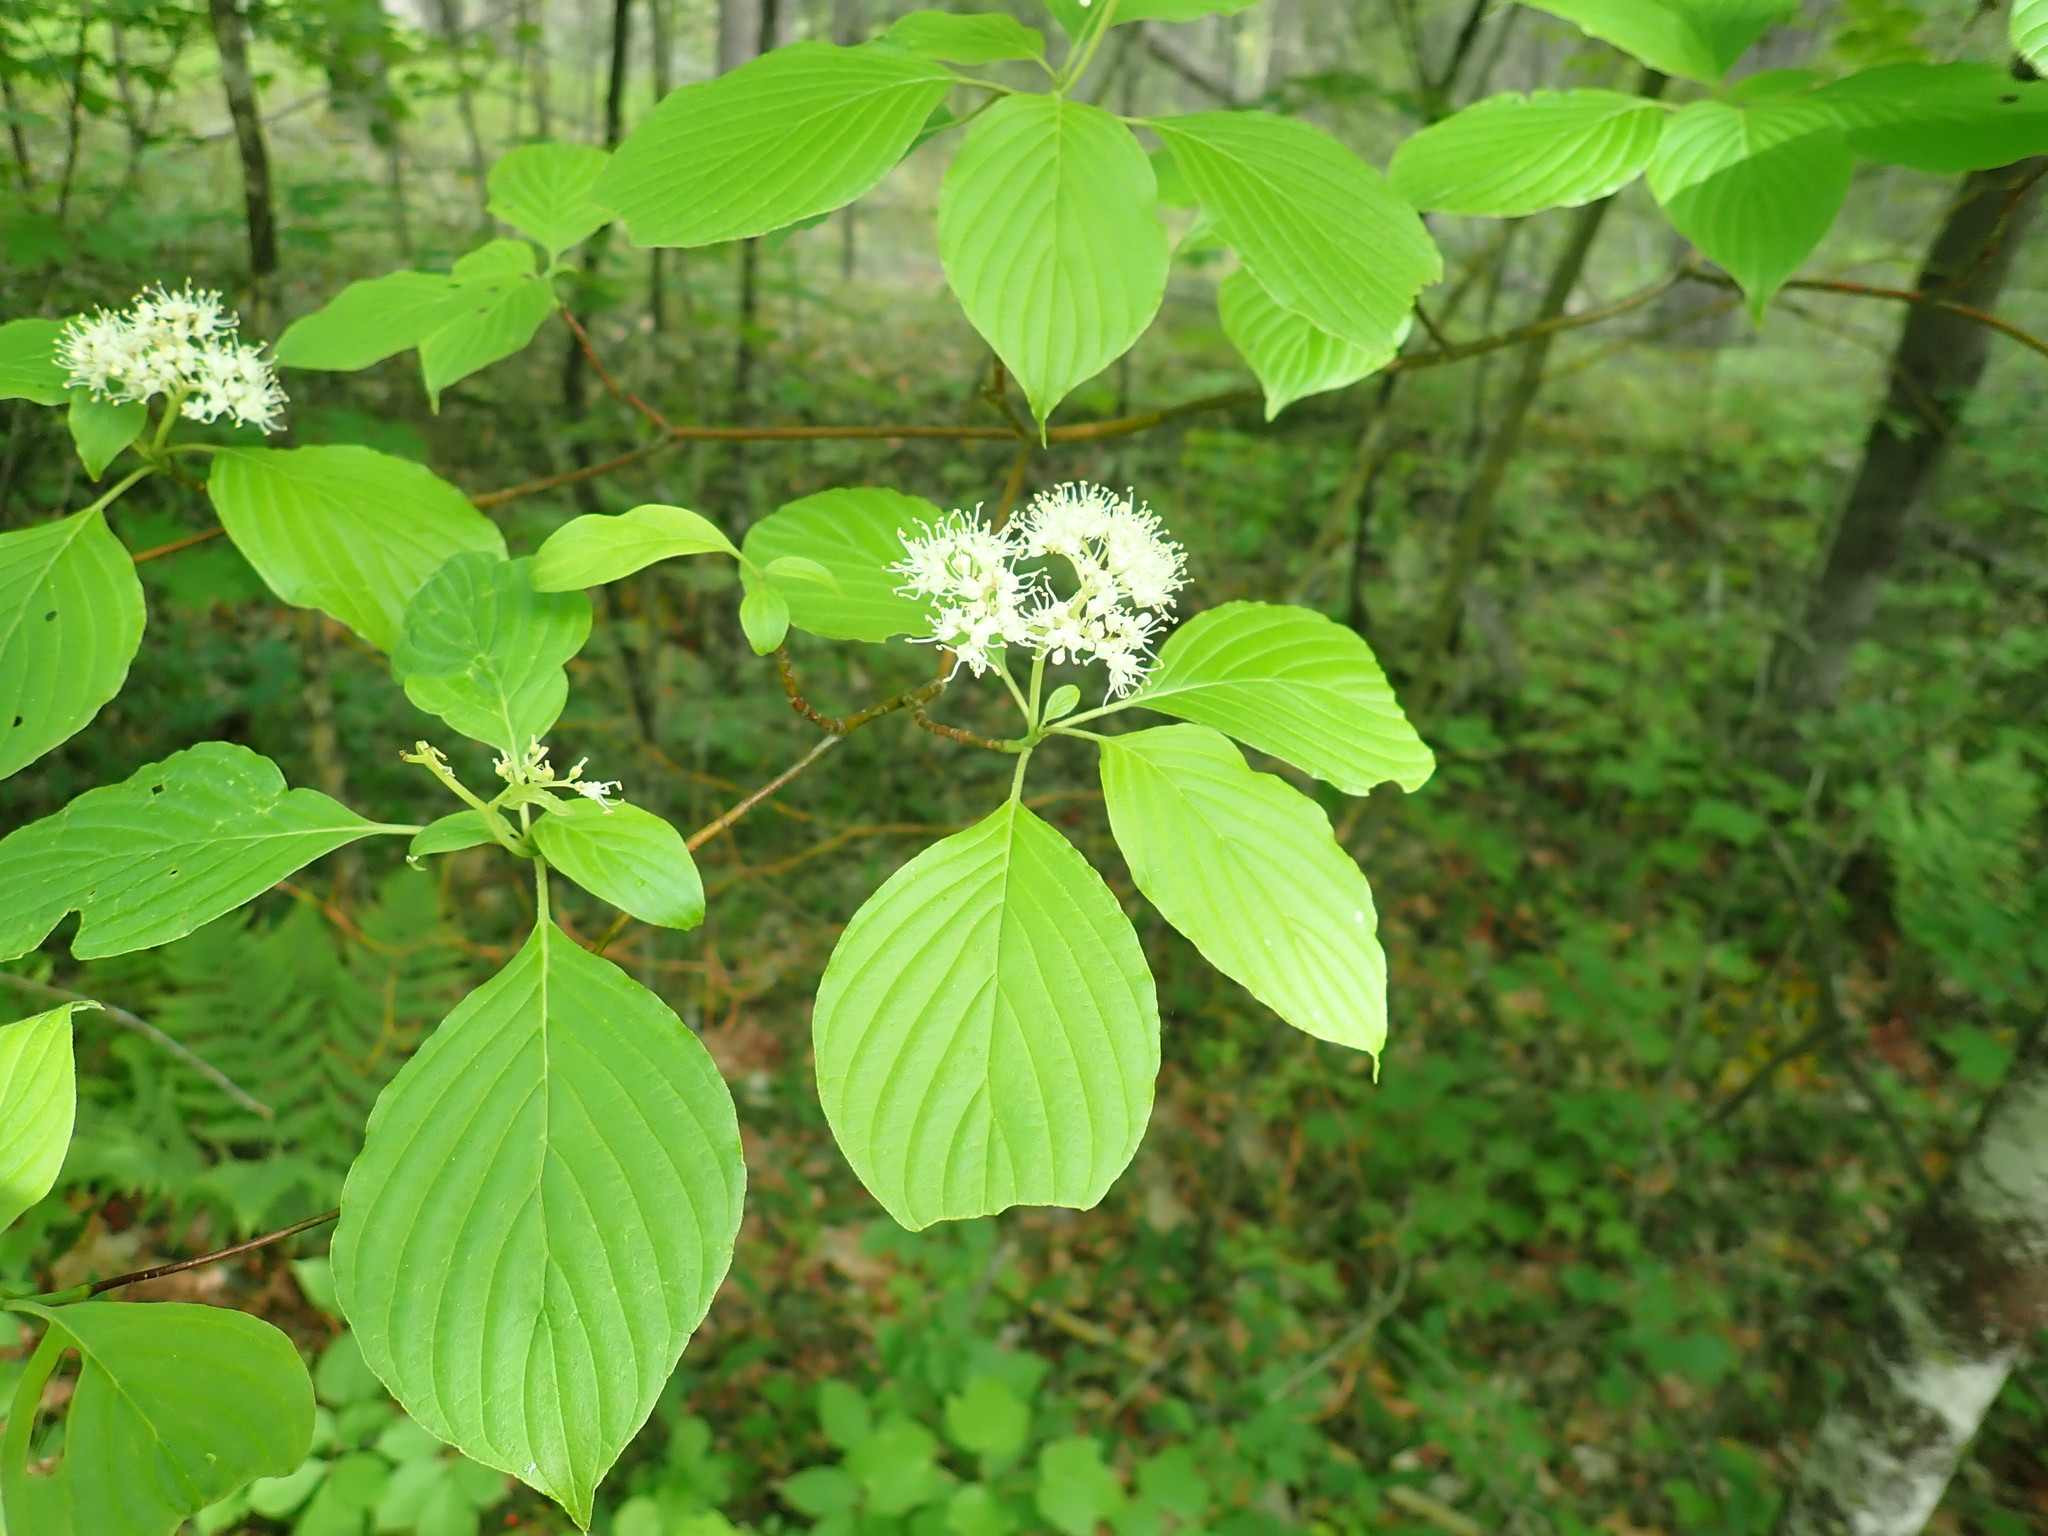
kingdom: Plantae
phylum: Tracheophyta
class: Magnoliopsida
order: Cornales
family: Cornaceae
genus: Cornus
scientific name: Cornus alternifolia
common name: Pagoda dogwood
